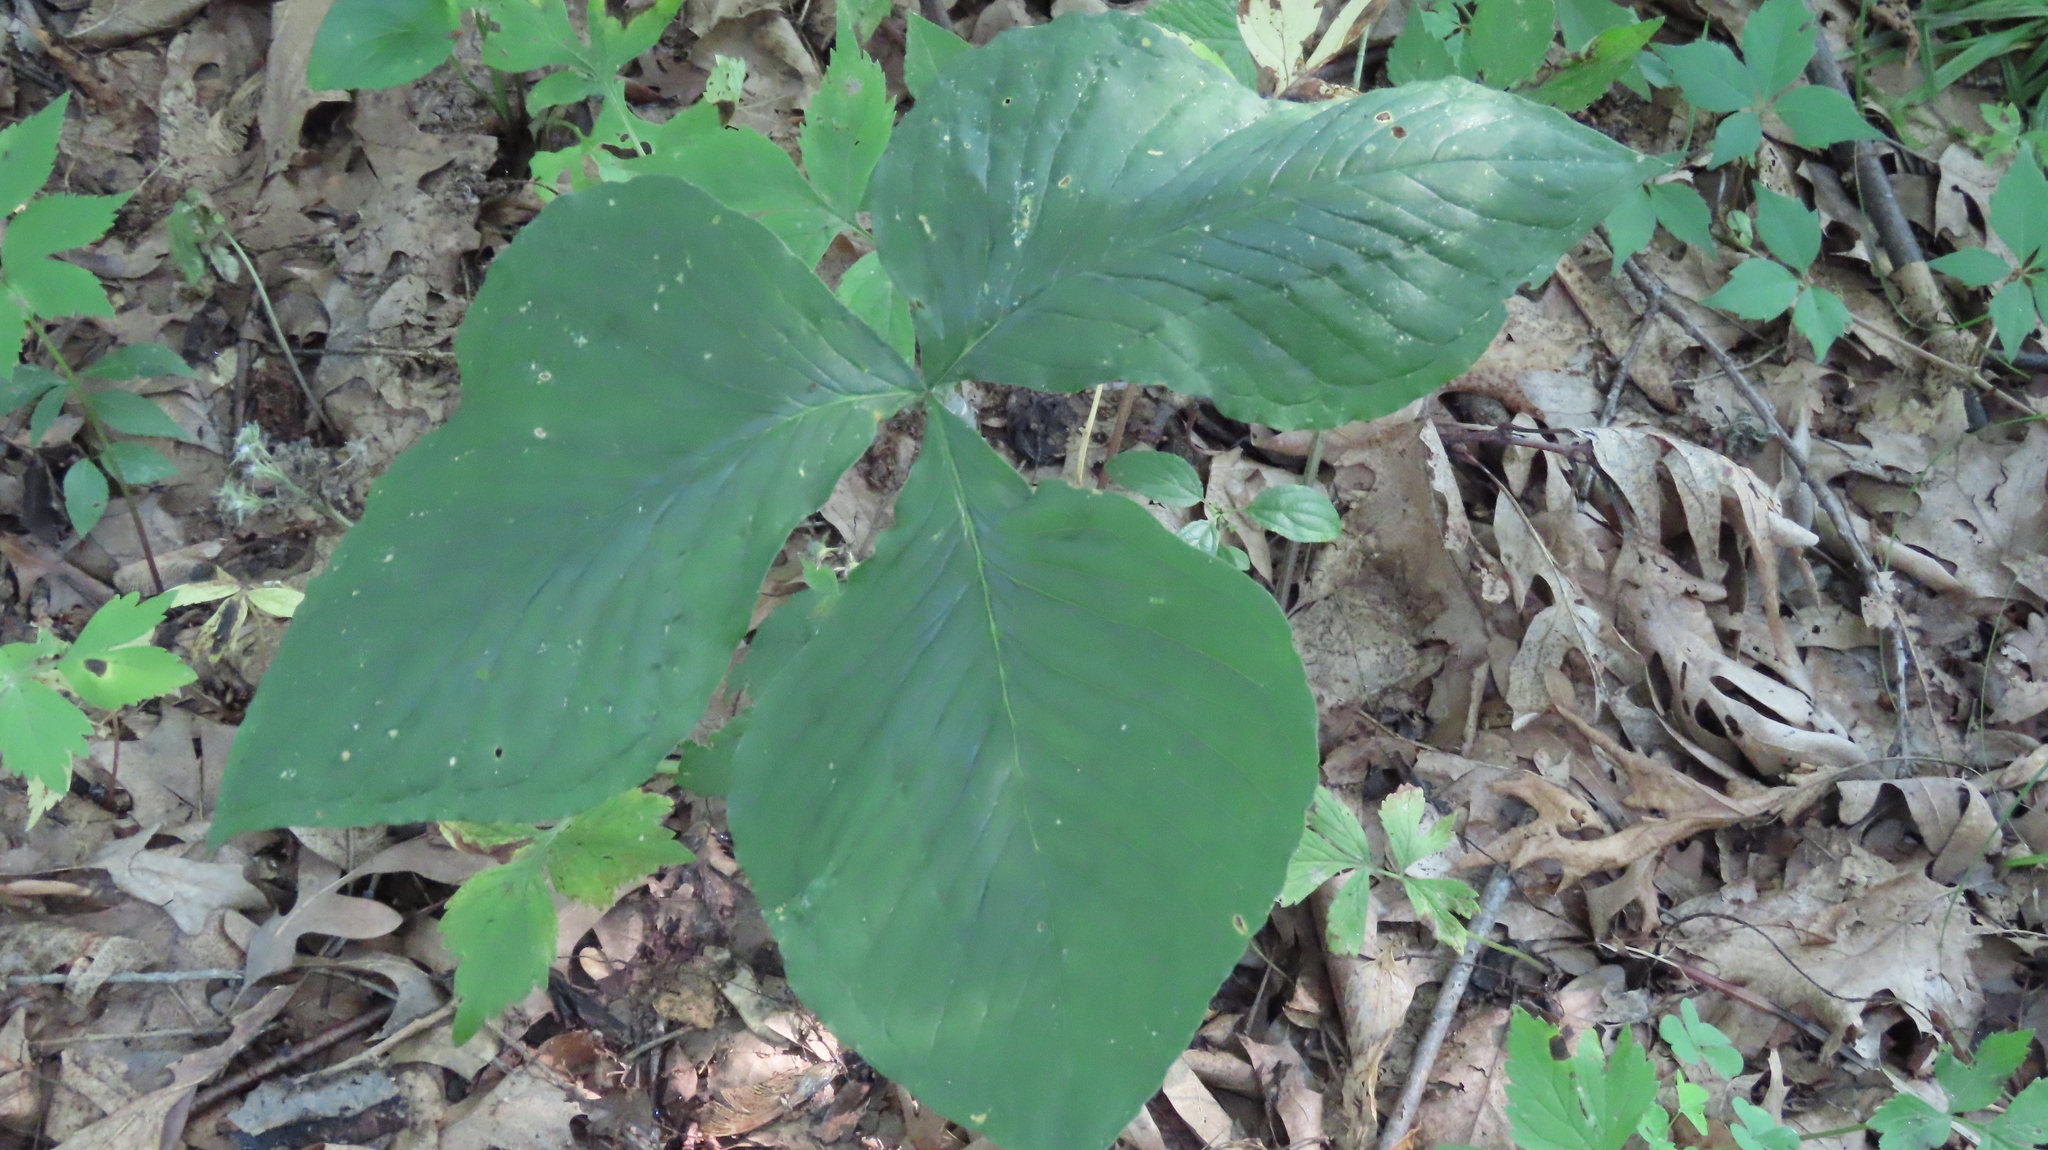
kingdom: Plantae
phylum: Tracheophyta
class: Liliopsida
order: Alismatales
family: Araceae
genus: Arisaema
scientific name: Arisaema triphyllum
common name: Jack-in-the-pulpit
